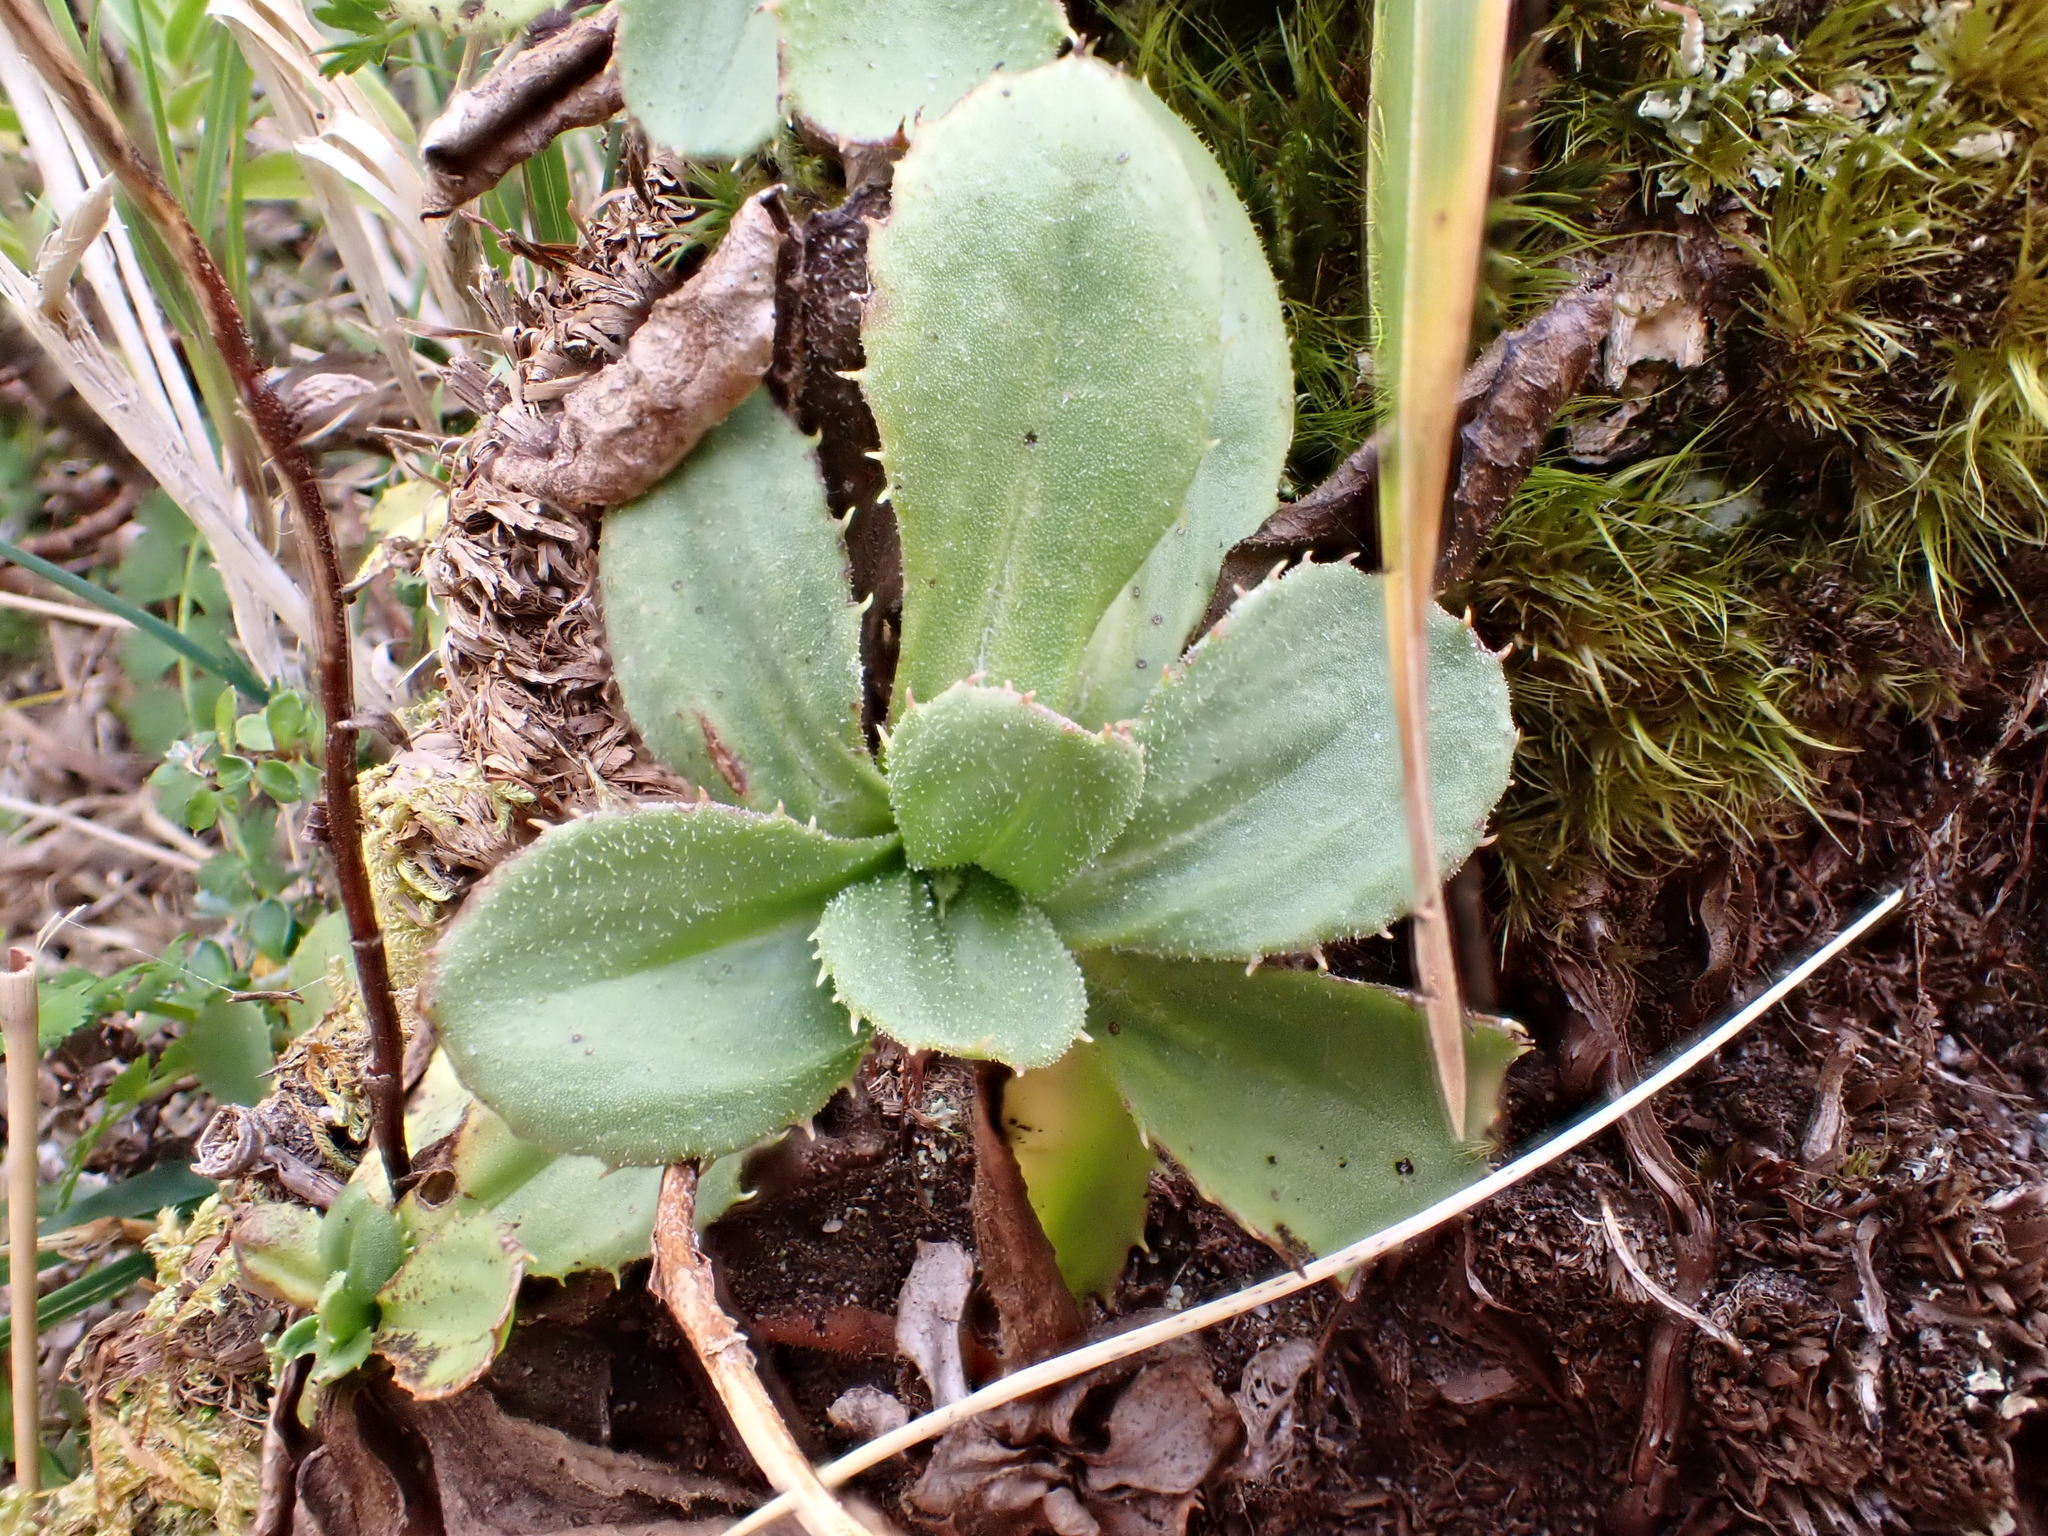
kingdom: Plantae
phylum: Tracheophyta
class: Magnoliopsida
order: Asterales
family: Asteraceae
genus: Celmisia
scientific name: Celmisia glandulosa
